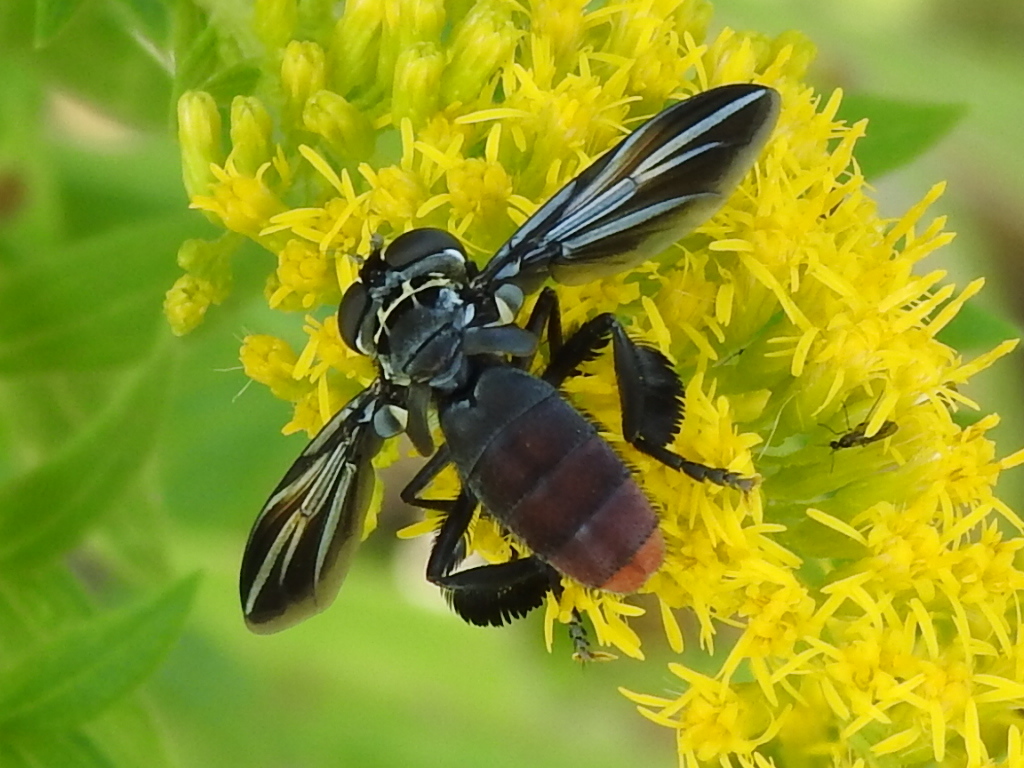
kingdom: Animalia
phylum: Arthropoda
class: Insecta
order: Diptera
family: Tachinidae
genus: Trichopoda
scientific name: Trichopoda lanipes
